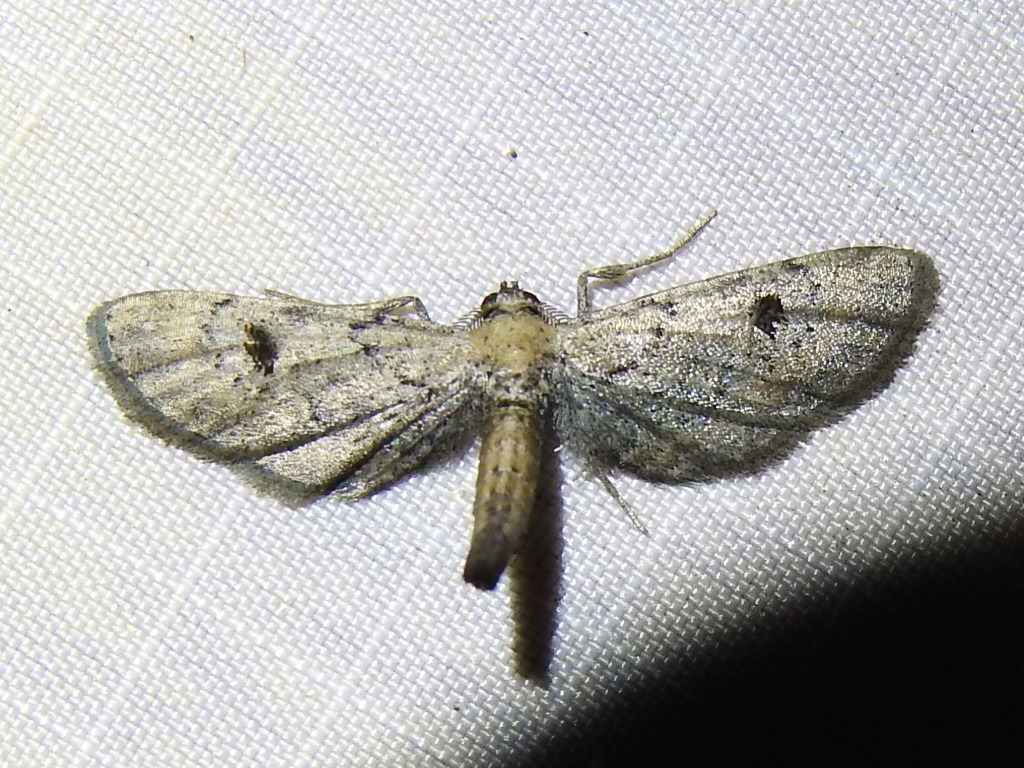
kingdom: Animalia
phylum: Arthropoda
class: Insecta
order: Lepidoptera
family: Geometridae
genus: Tornos
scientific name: Tornos scolopacinaria
